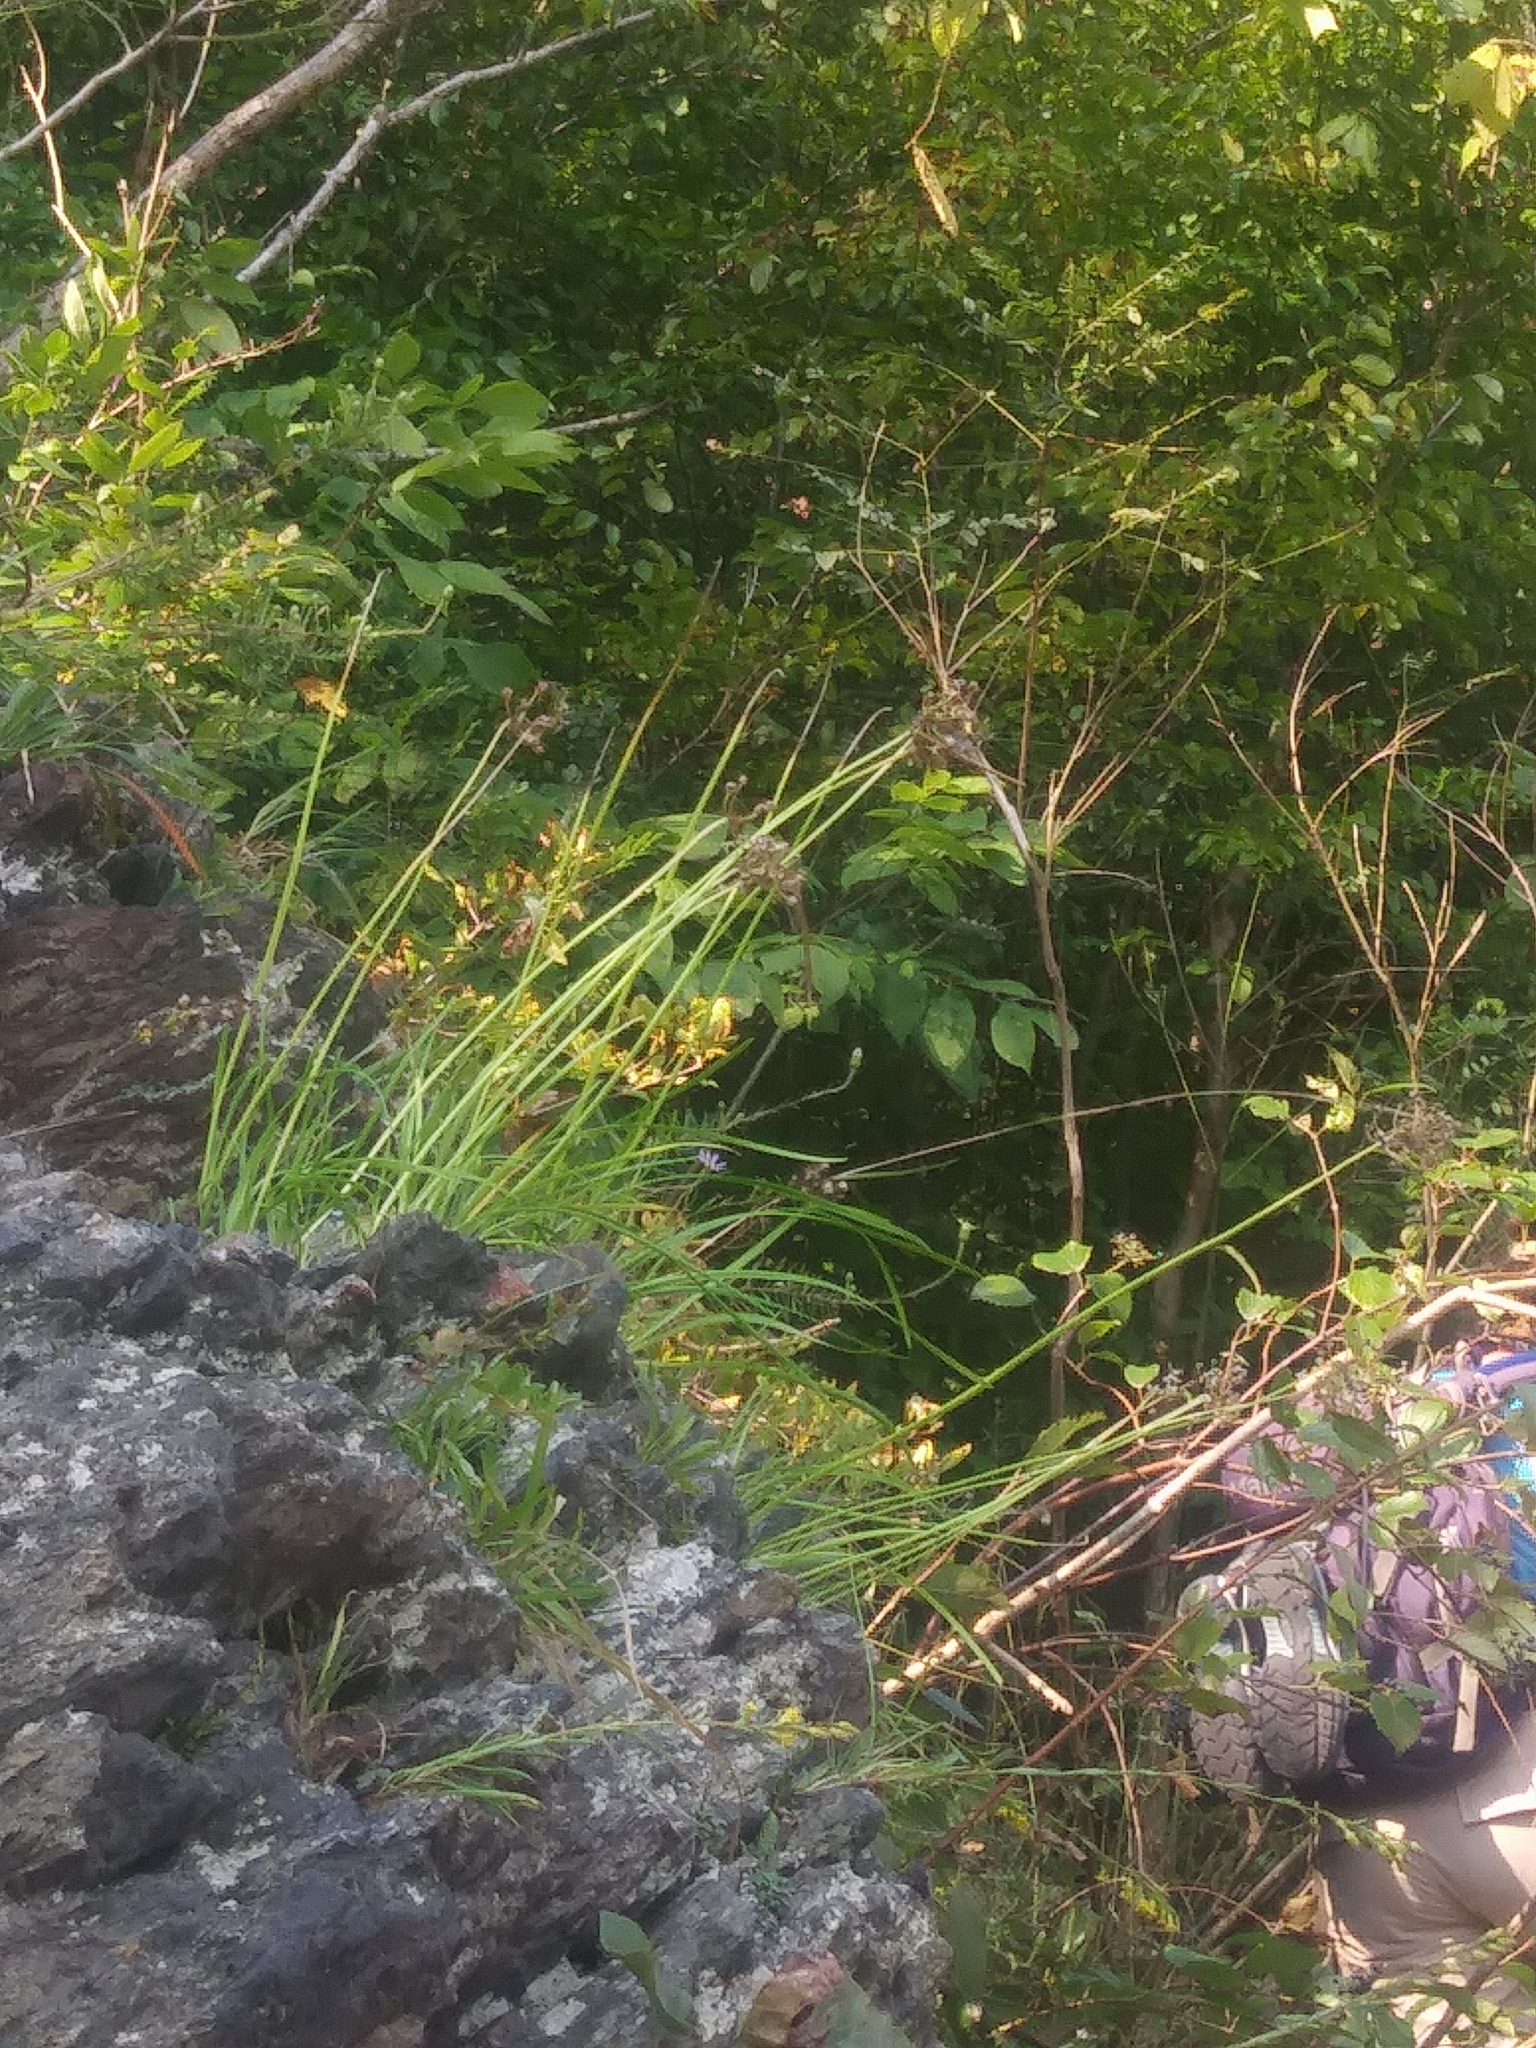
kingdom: Plantae
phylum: Tracheophyta
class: Liliopsida
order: Asparagales
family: Amaryllidaceae
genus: Allium
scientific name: Allium cernuum
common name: Nodding onion
